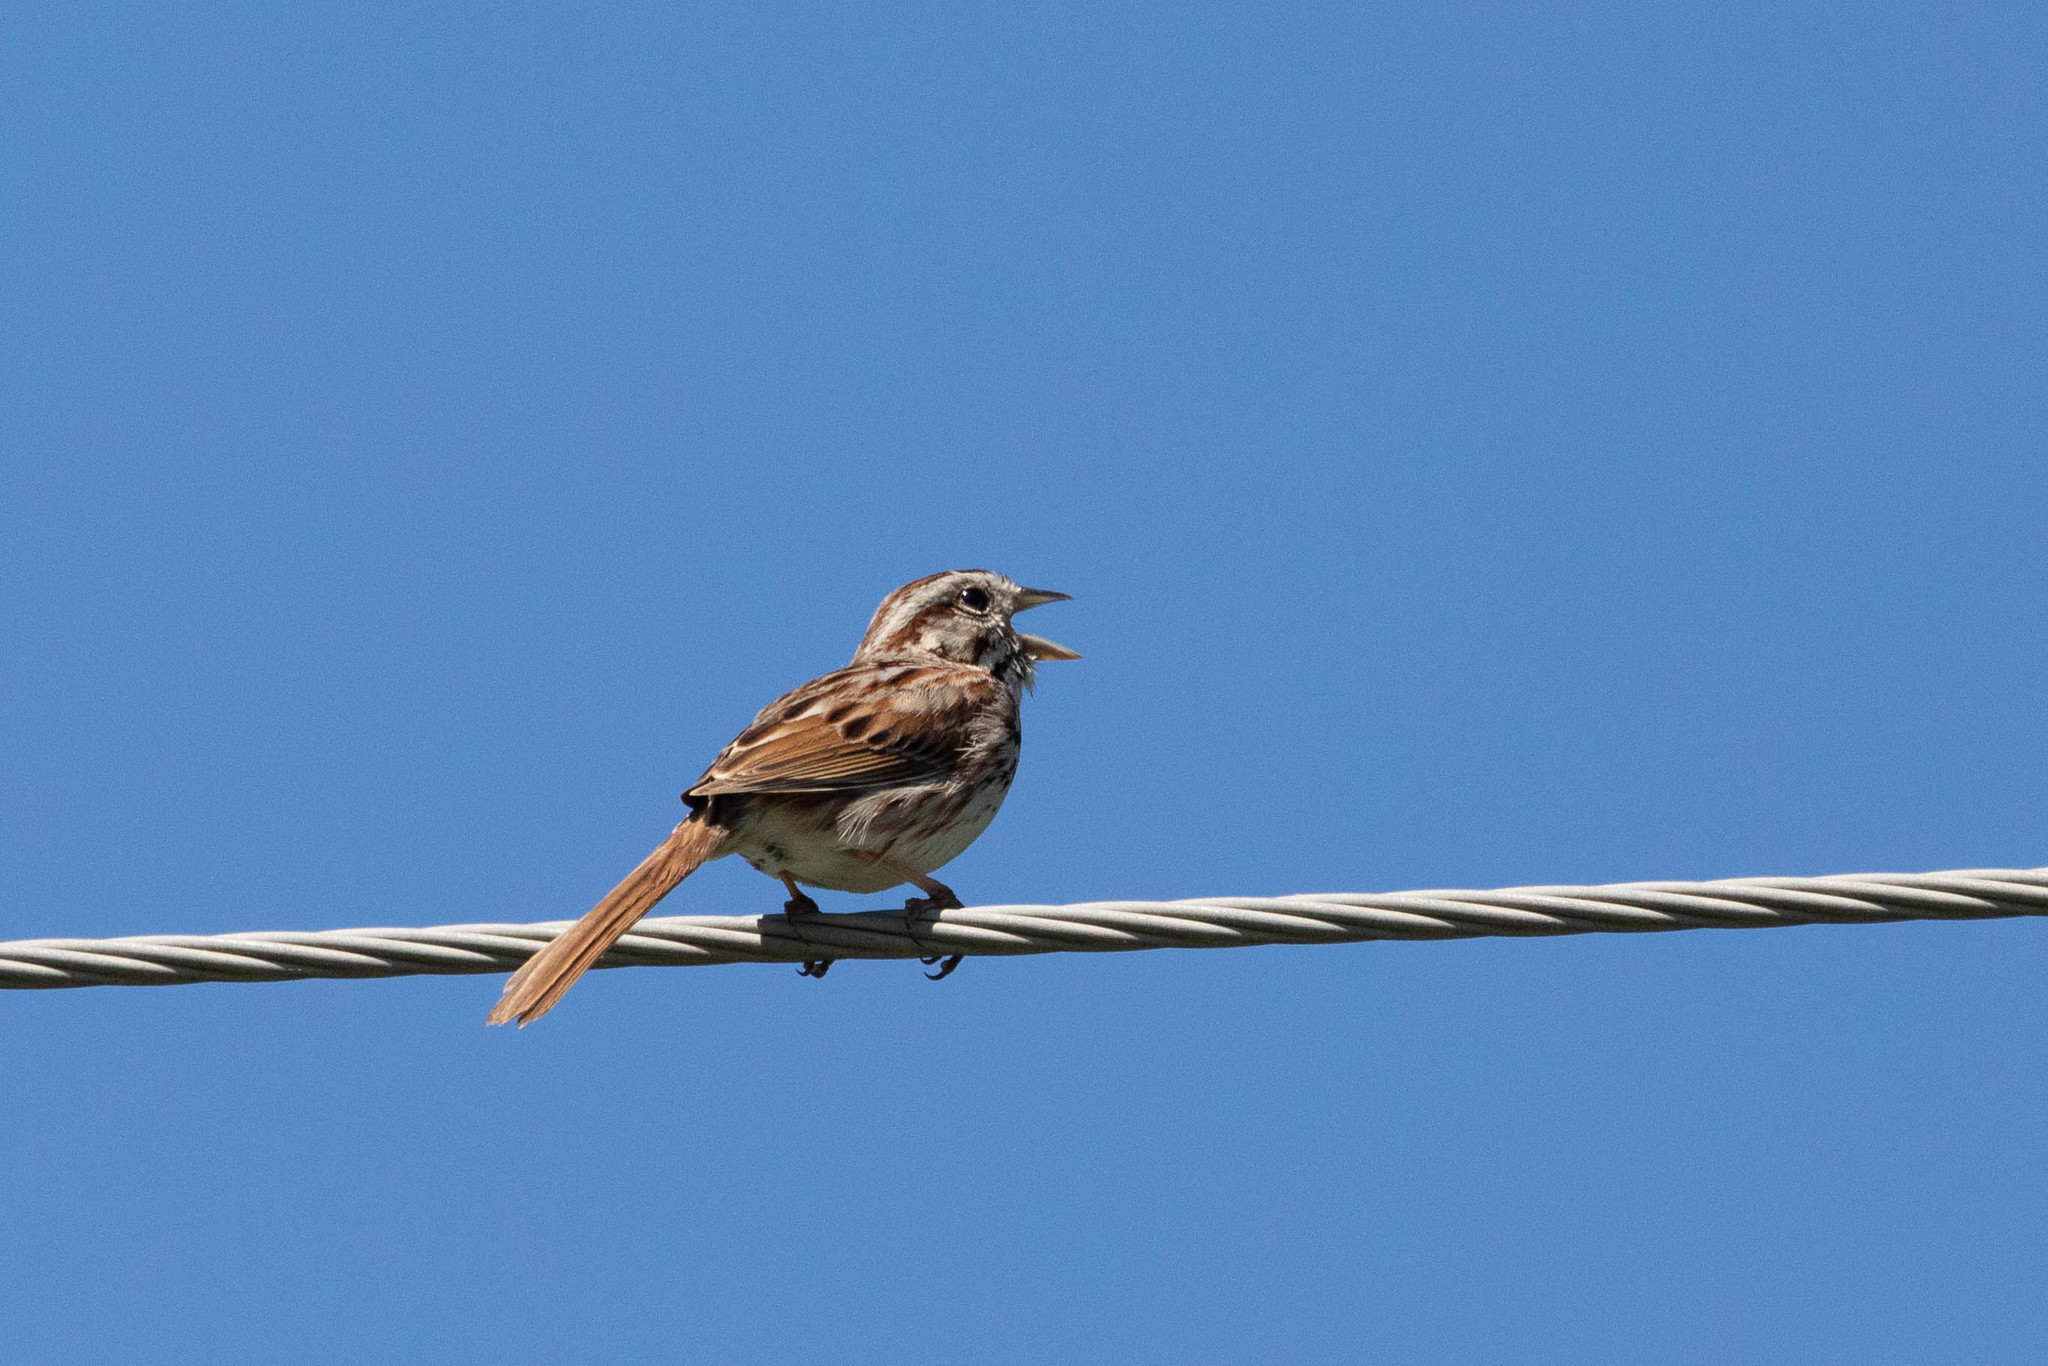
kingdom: Animalia
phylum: Chordata
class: Aves
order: Passeriformes
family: Passerellidae
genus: Melospiza
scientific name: Melospiza melodia
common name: Song sparrow
